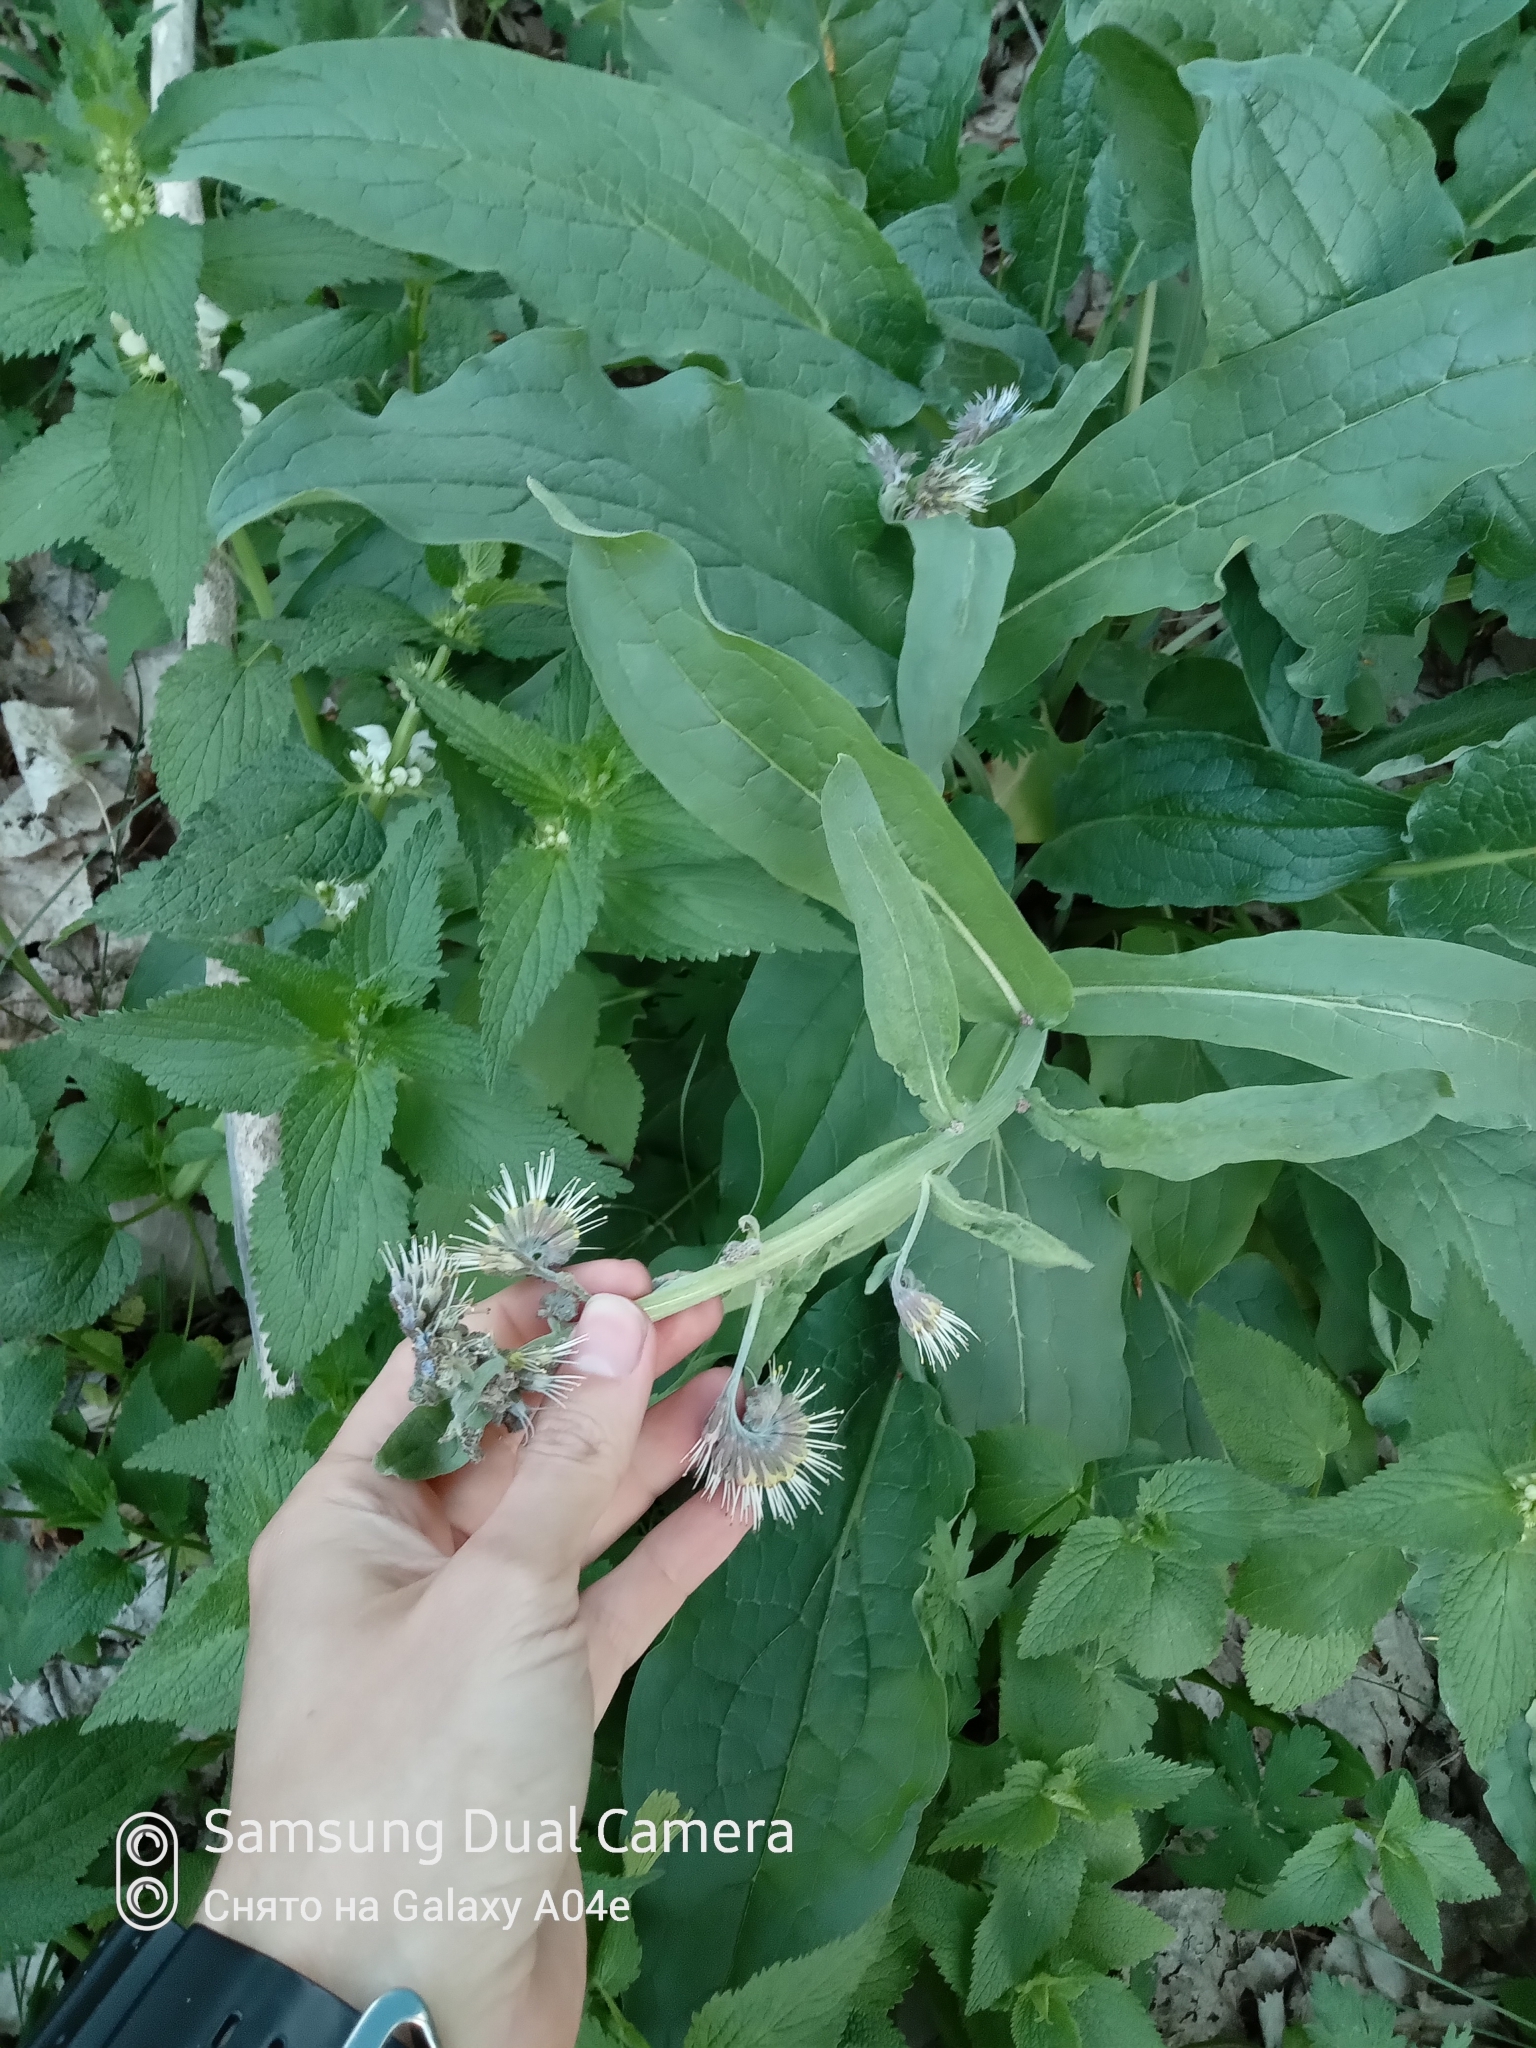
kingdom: Plantae
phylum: Tracheophyta
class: Magnoliopsida
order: Boraginales
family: Boraginaceae
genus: Solenanthus
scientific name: Solenanthus circinnatus
